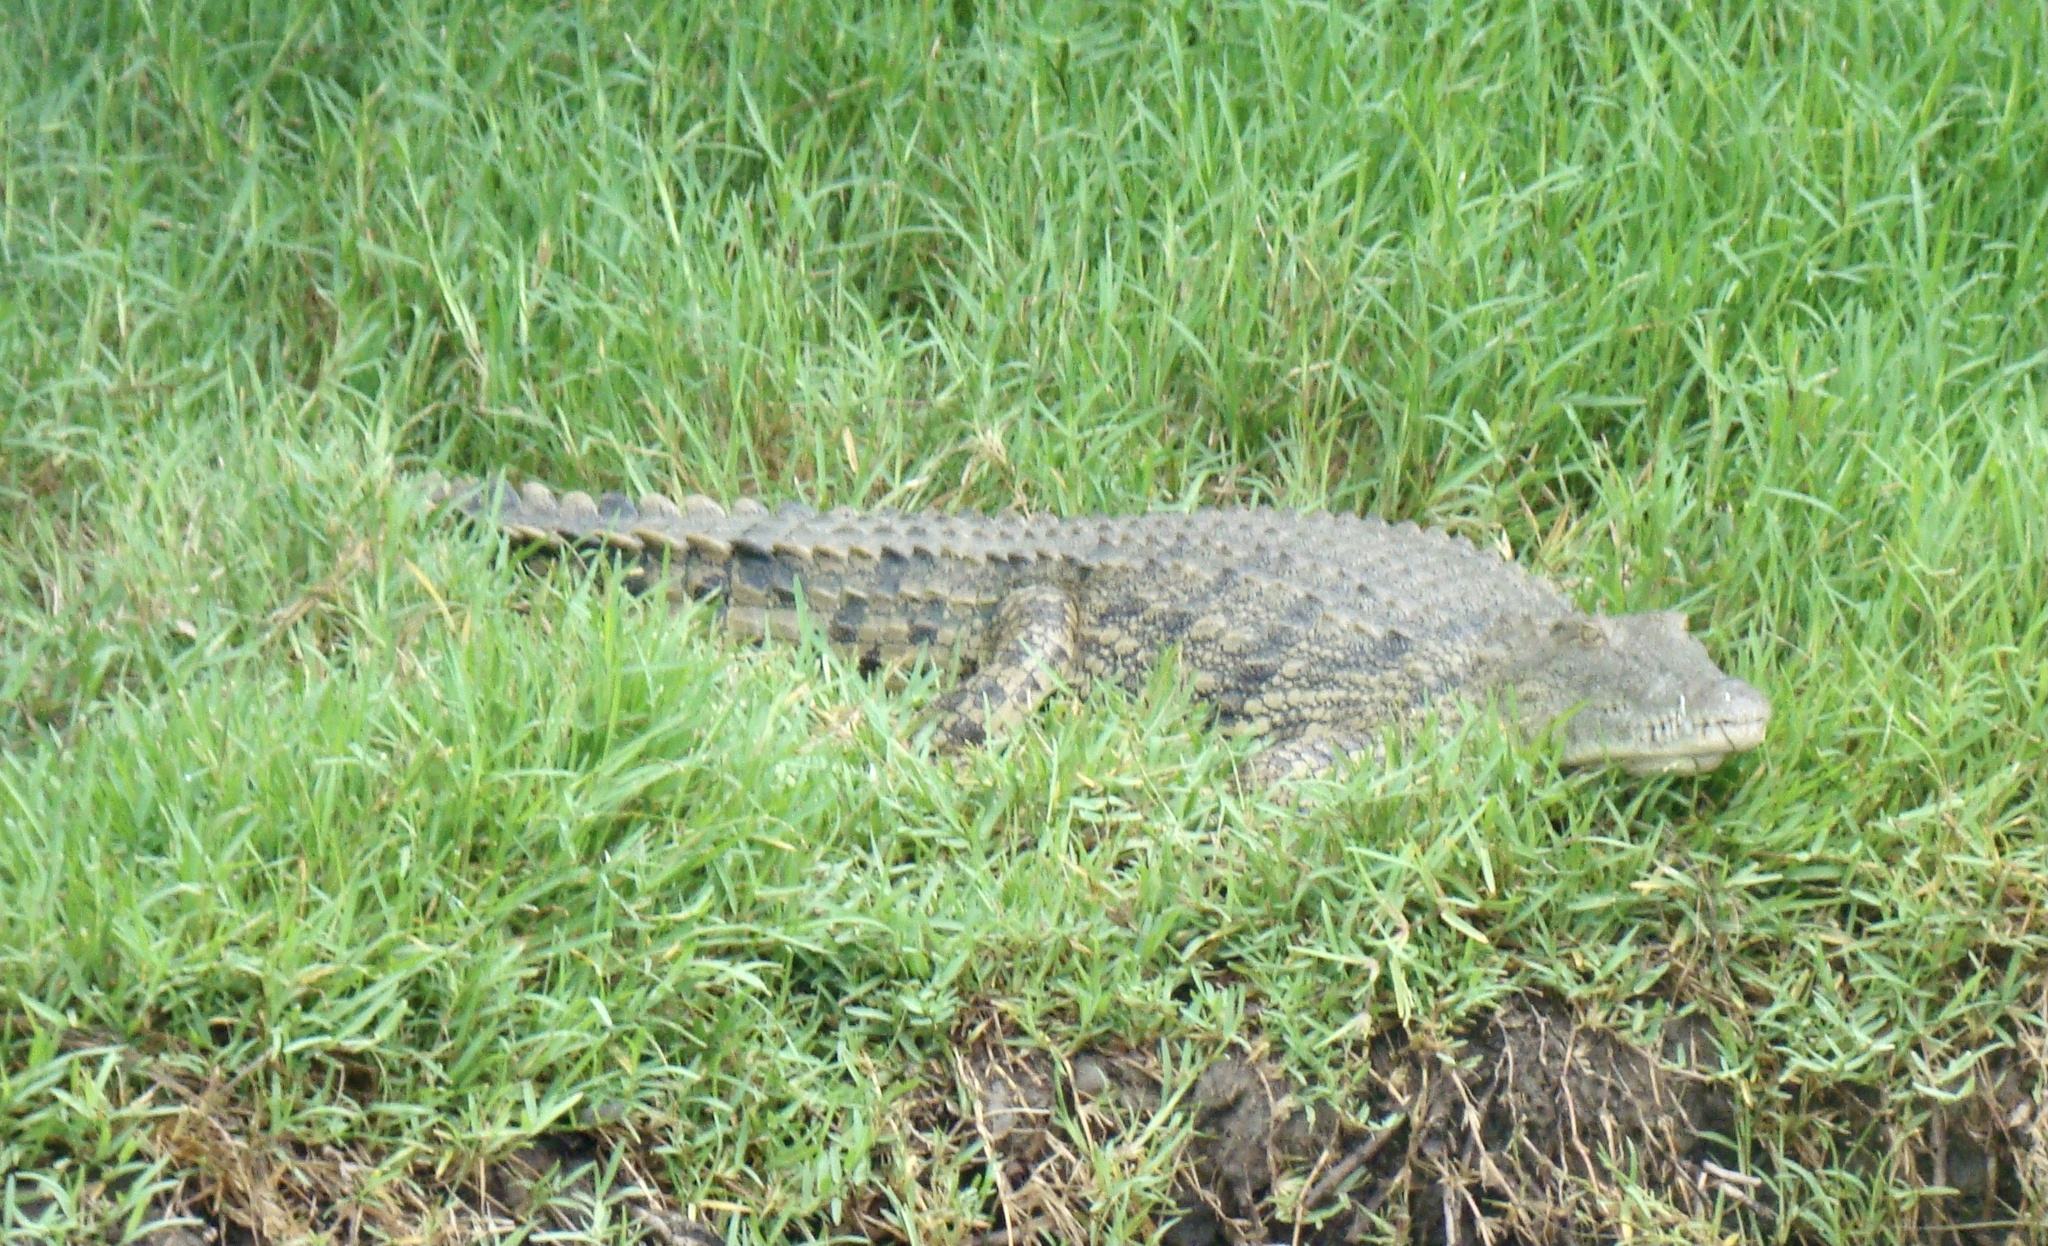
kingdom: Animalia
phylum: Chordata
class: Crocodylia
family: Crocodylidae
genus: Crocodylus
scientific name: Crocodylus niloticus
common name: Nile crocodile
